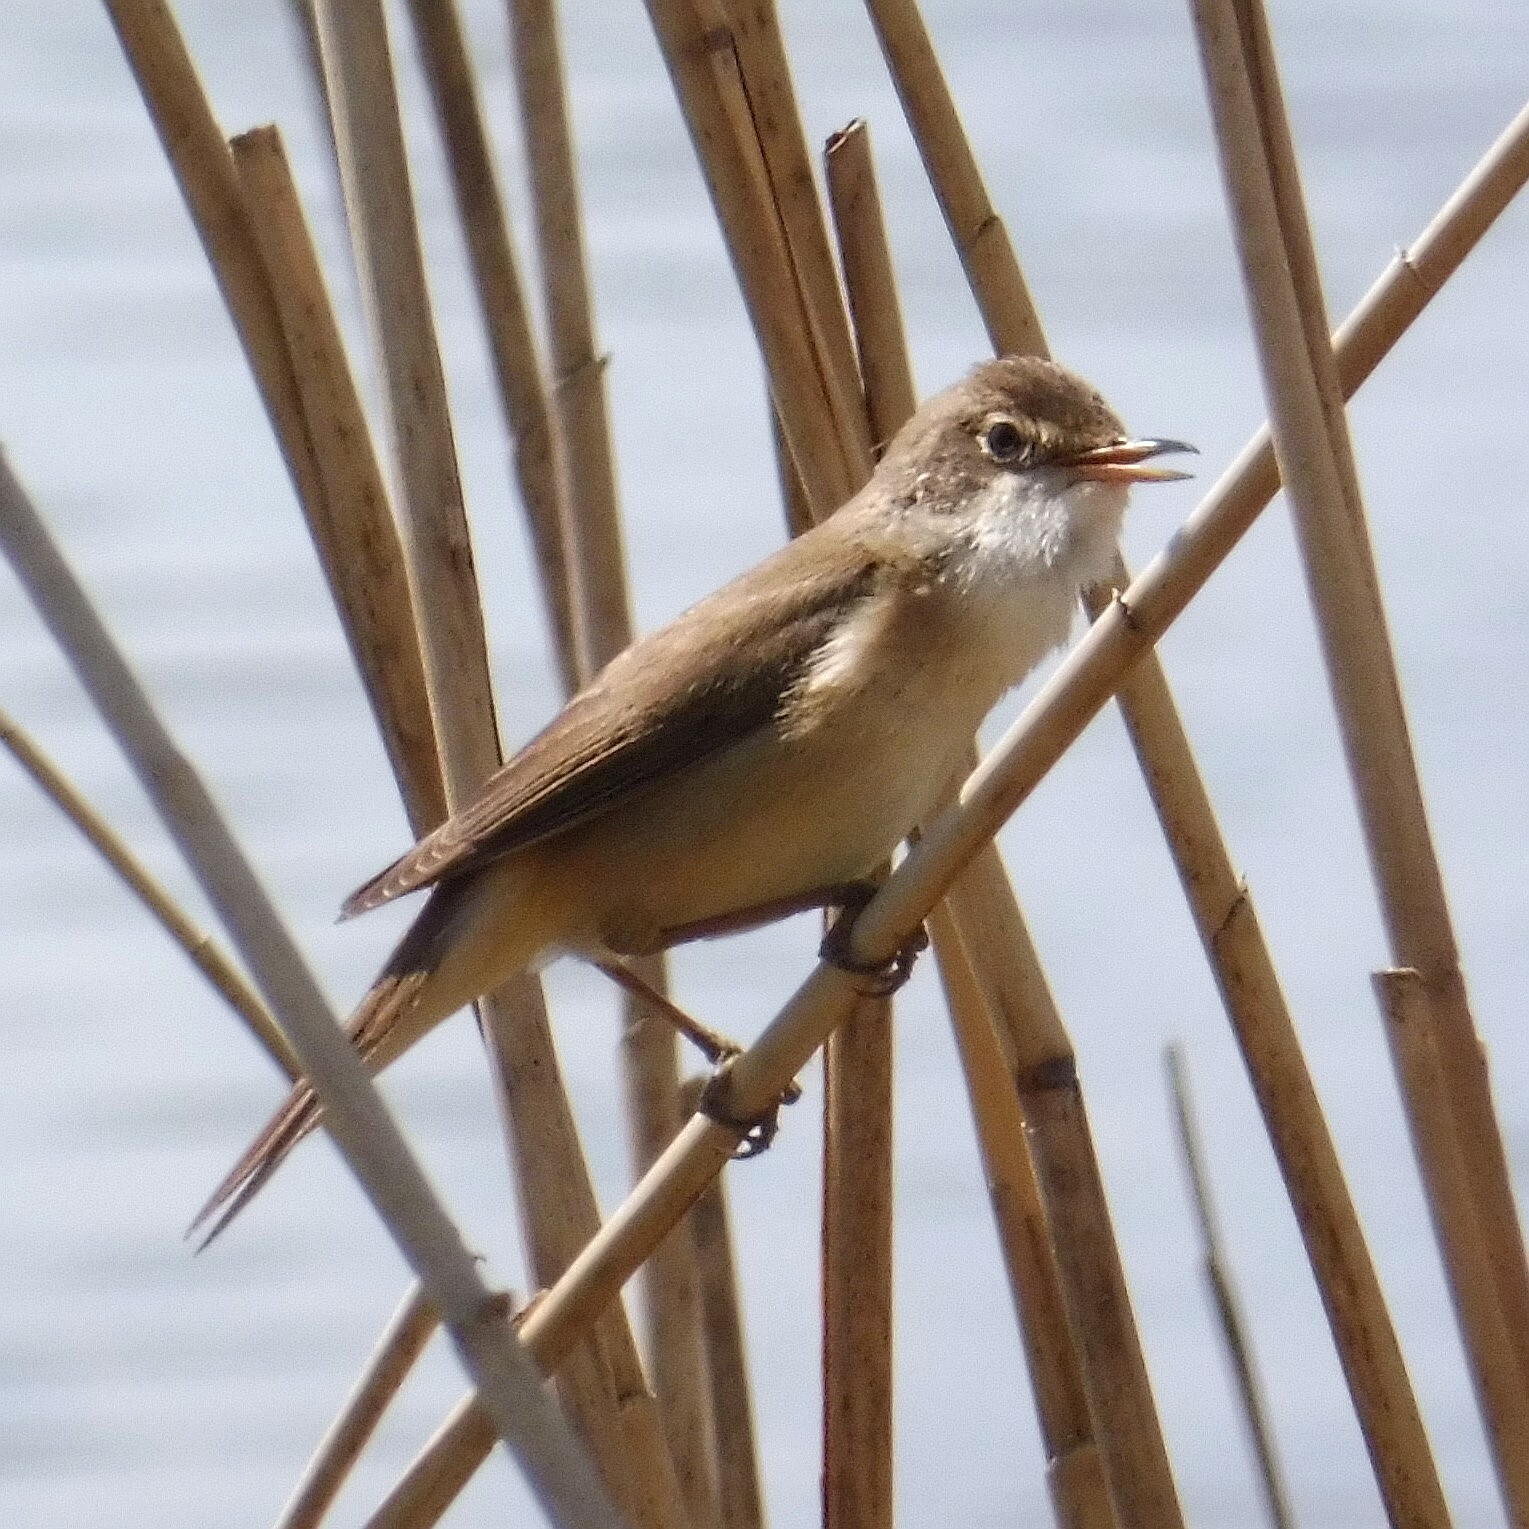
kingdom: Animalia
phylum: Chordata
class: Aves
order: Passeriformes
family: Acrocephalidae
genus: Acrocephalus
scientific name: Acrocephalus scirpaceus
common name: Eurasian reed warbler
